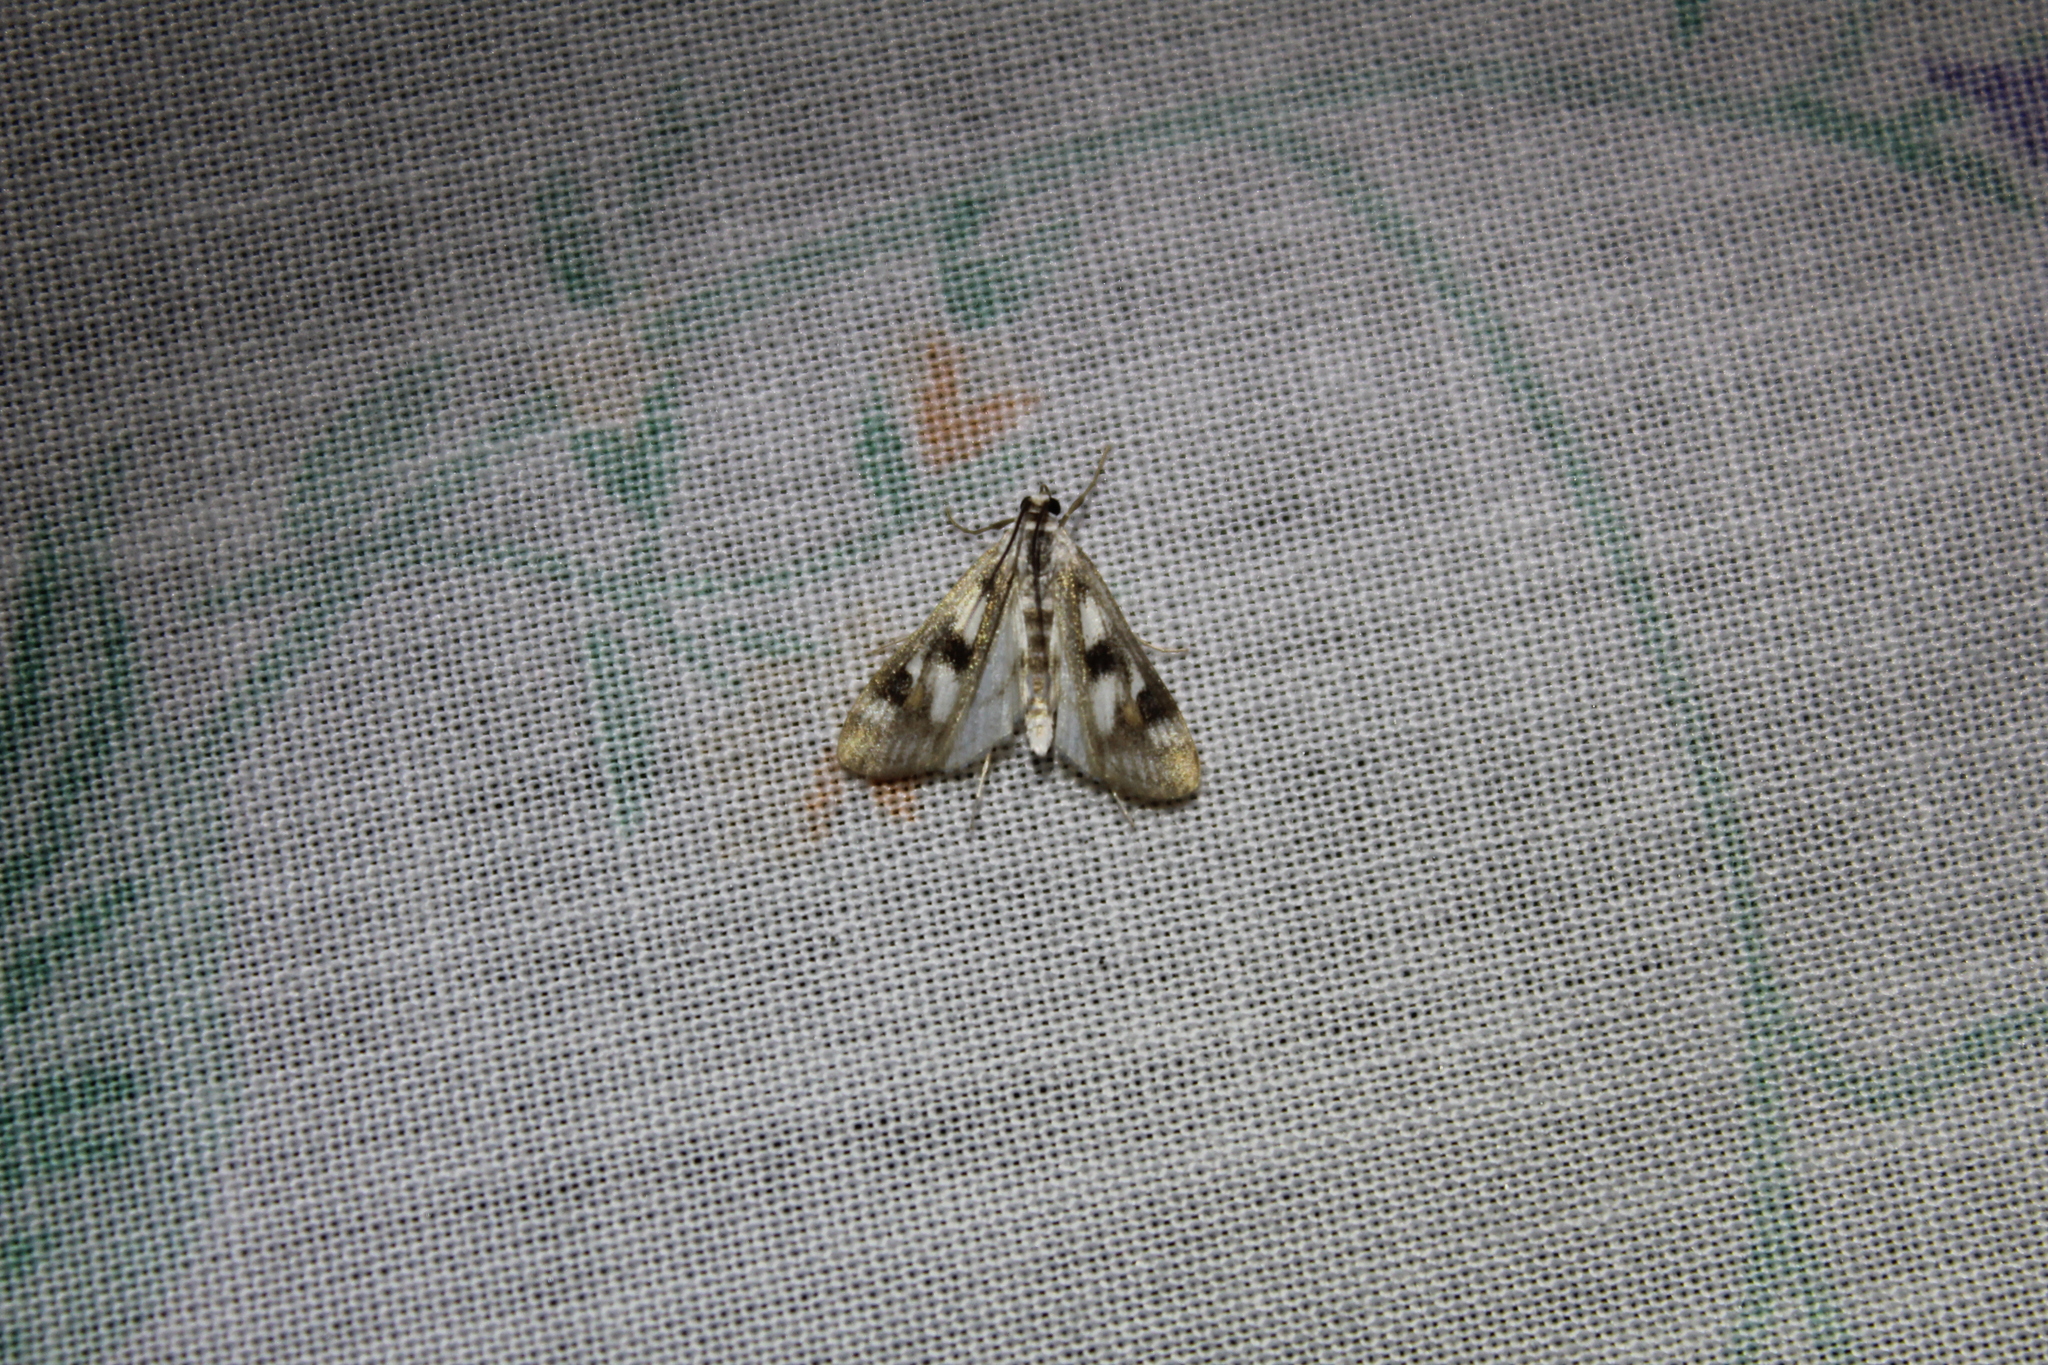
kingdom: Animalia
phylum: Arthropoda
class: Insecta
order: Lepidoptera
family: Crambidae
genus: Parapoynx
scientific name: Parapoynx maculalis
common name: Polymorphic pondweed moth
